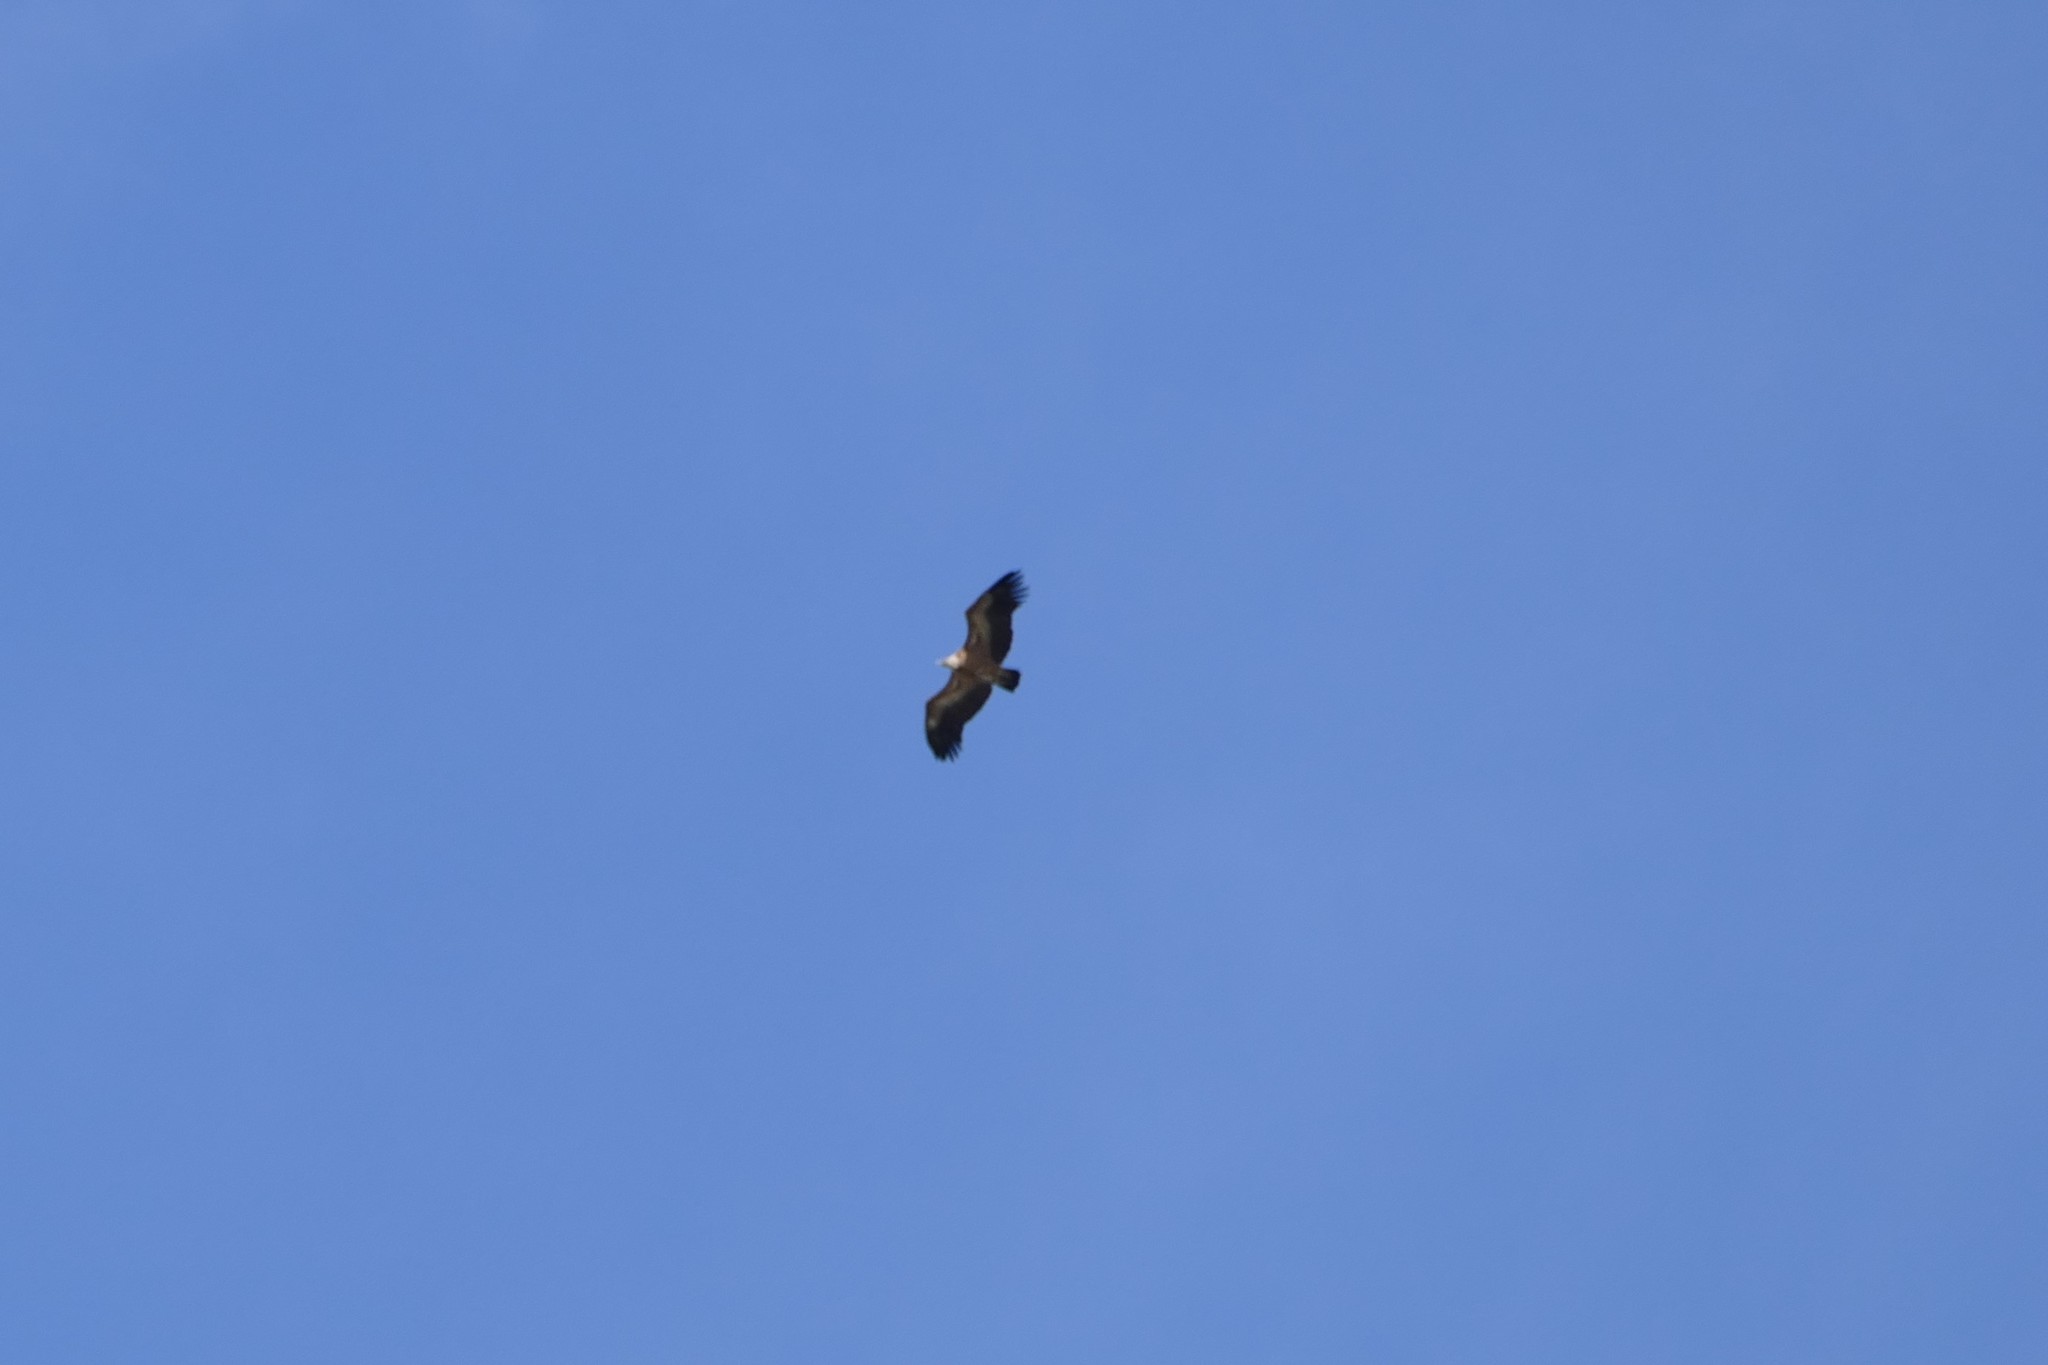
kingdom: Animalia
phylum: Chordata
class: Aves
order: Accipitriformes
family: Accipitridae
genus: Gyps
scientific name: Gyps fulvus
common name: Griffon vulture
